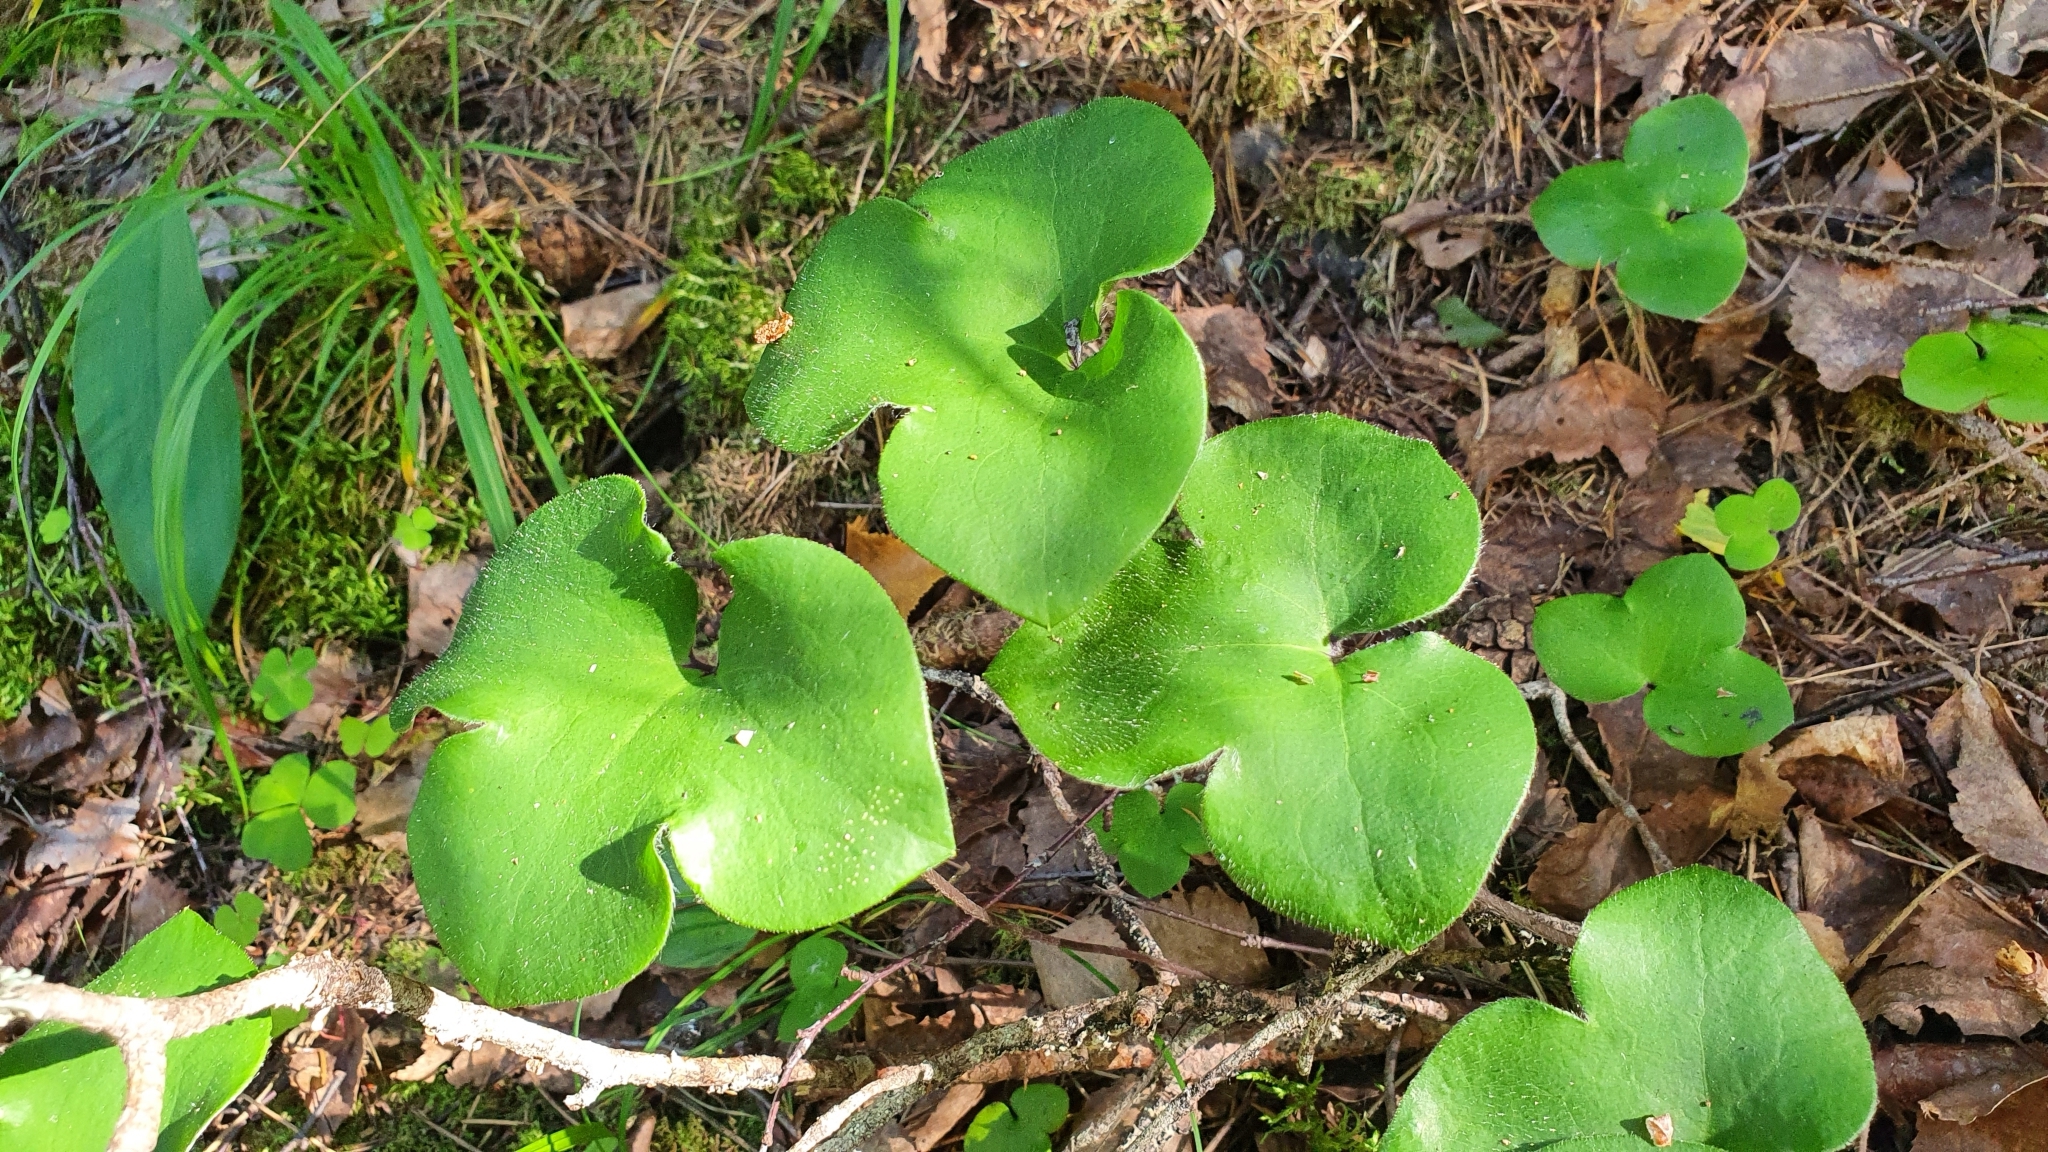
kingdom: Plantae
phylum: Tracheophyta
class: Magnoliopsida
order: Ranunculales
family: Ranunculaceae
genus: Hepatica
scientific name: Hepatica nobilis
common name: Liverleaf
